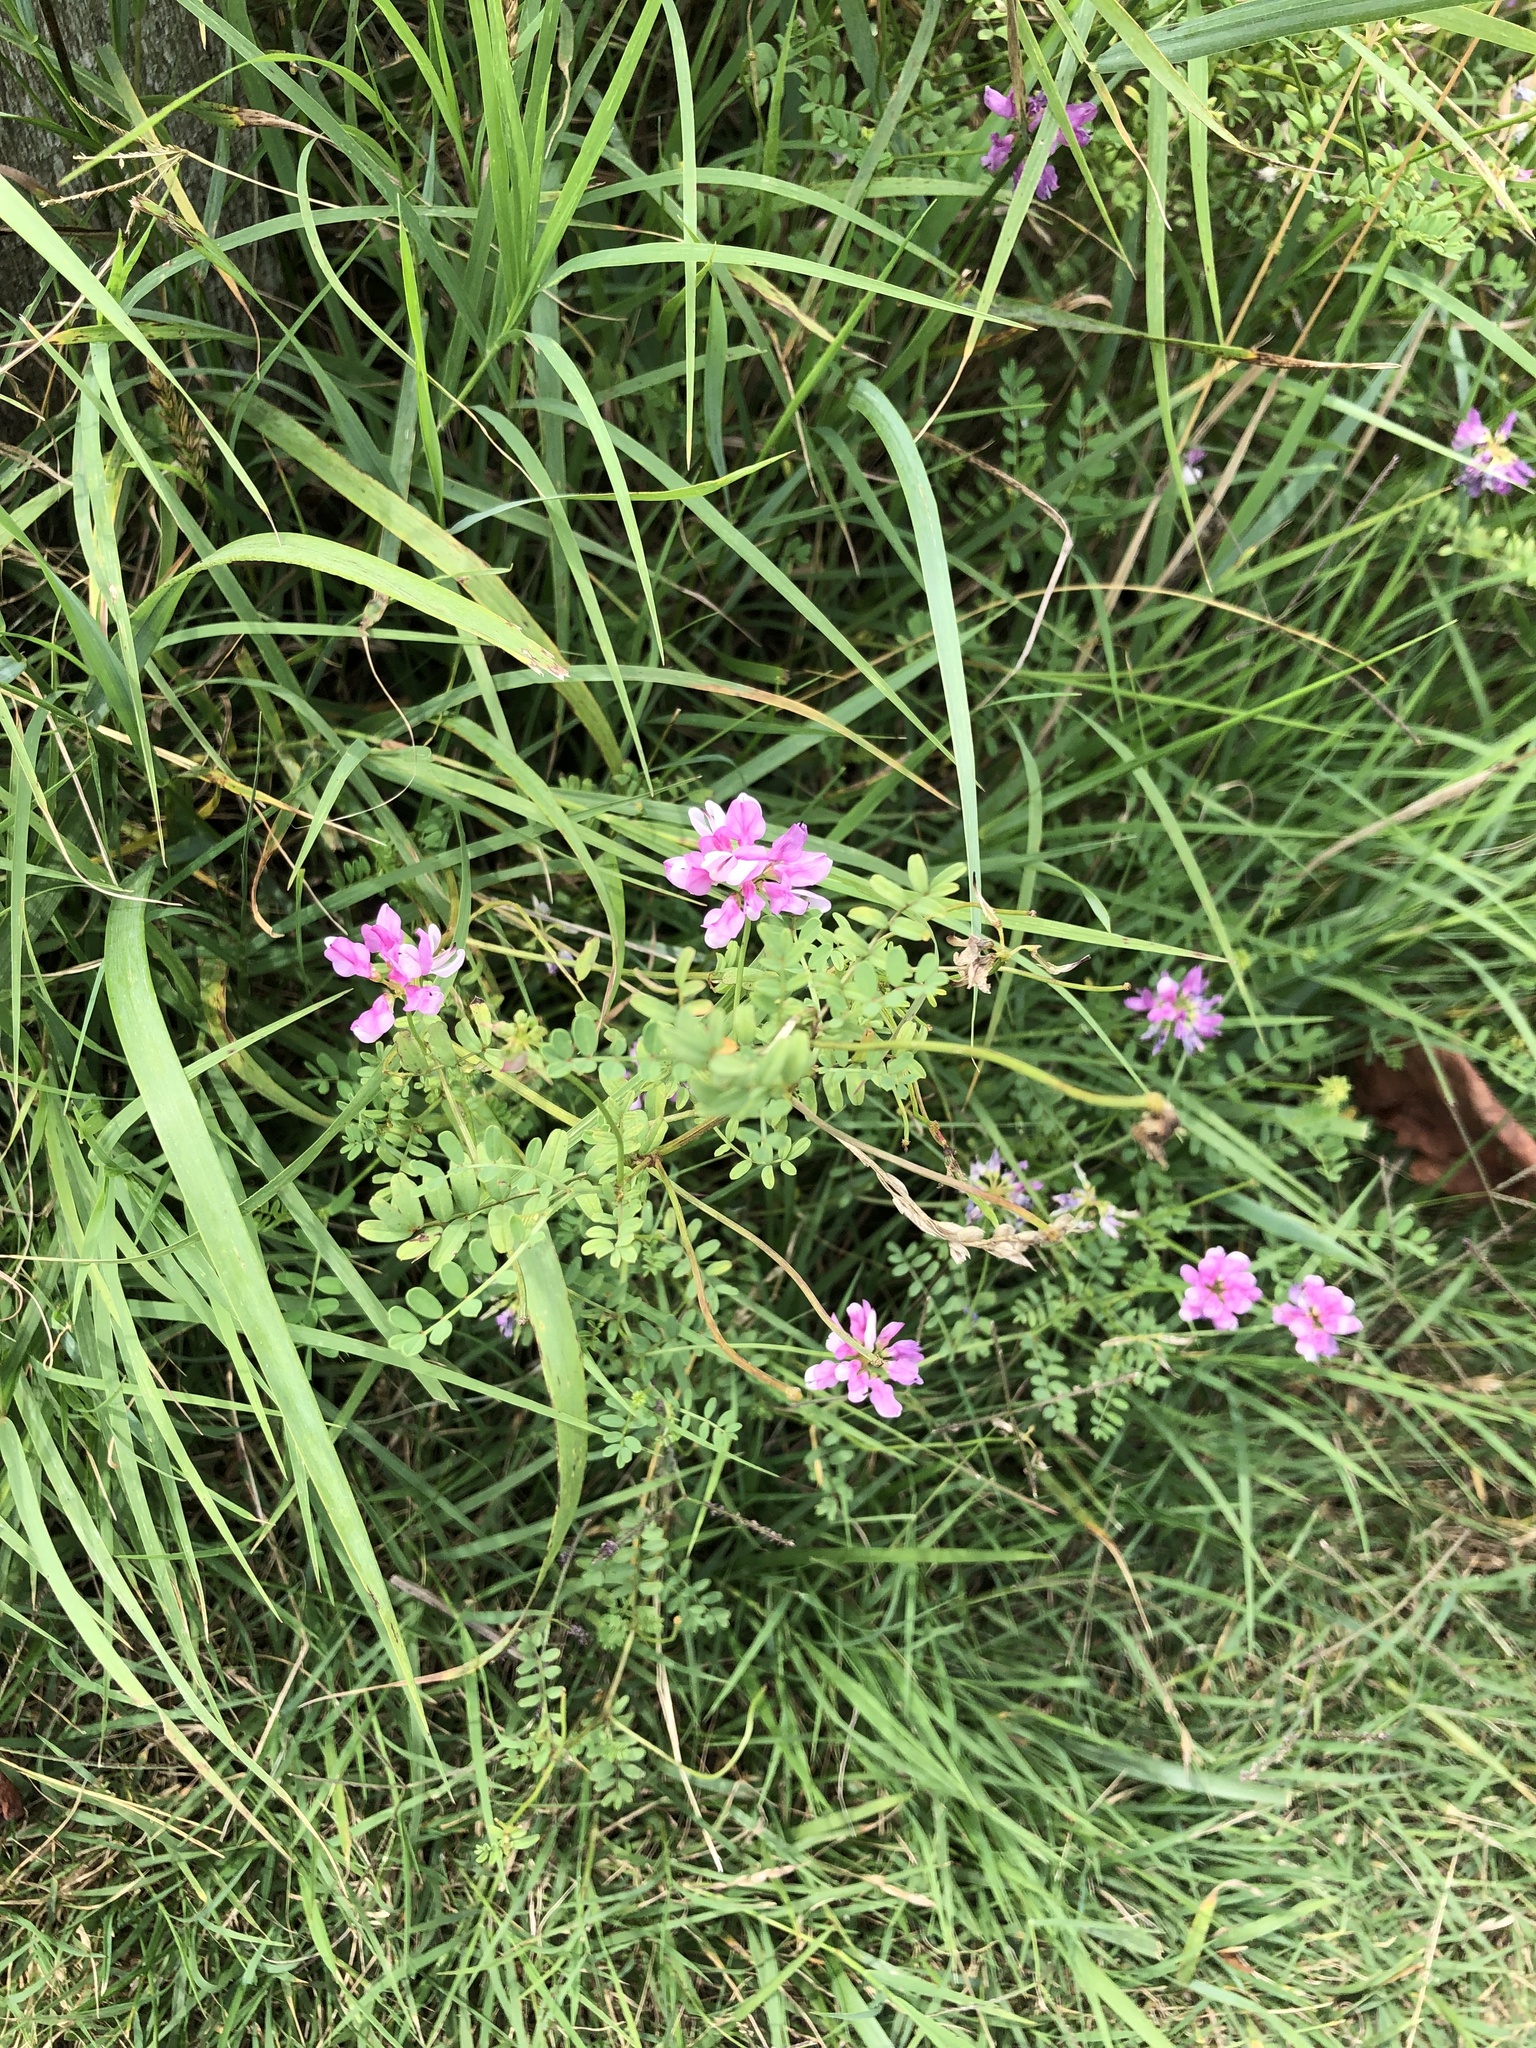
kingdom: Plantae
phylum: Tracheophyta
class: Magnoliopsida
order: Fabales
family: Fabaceae
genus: Coronilla
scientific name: Coronilla varia
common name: Crownvetch
